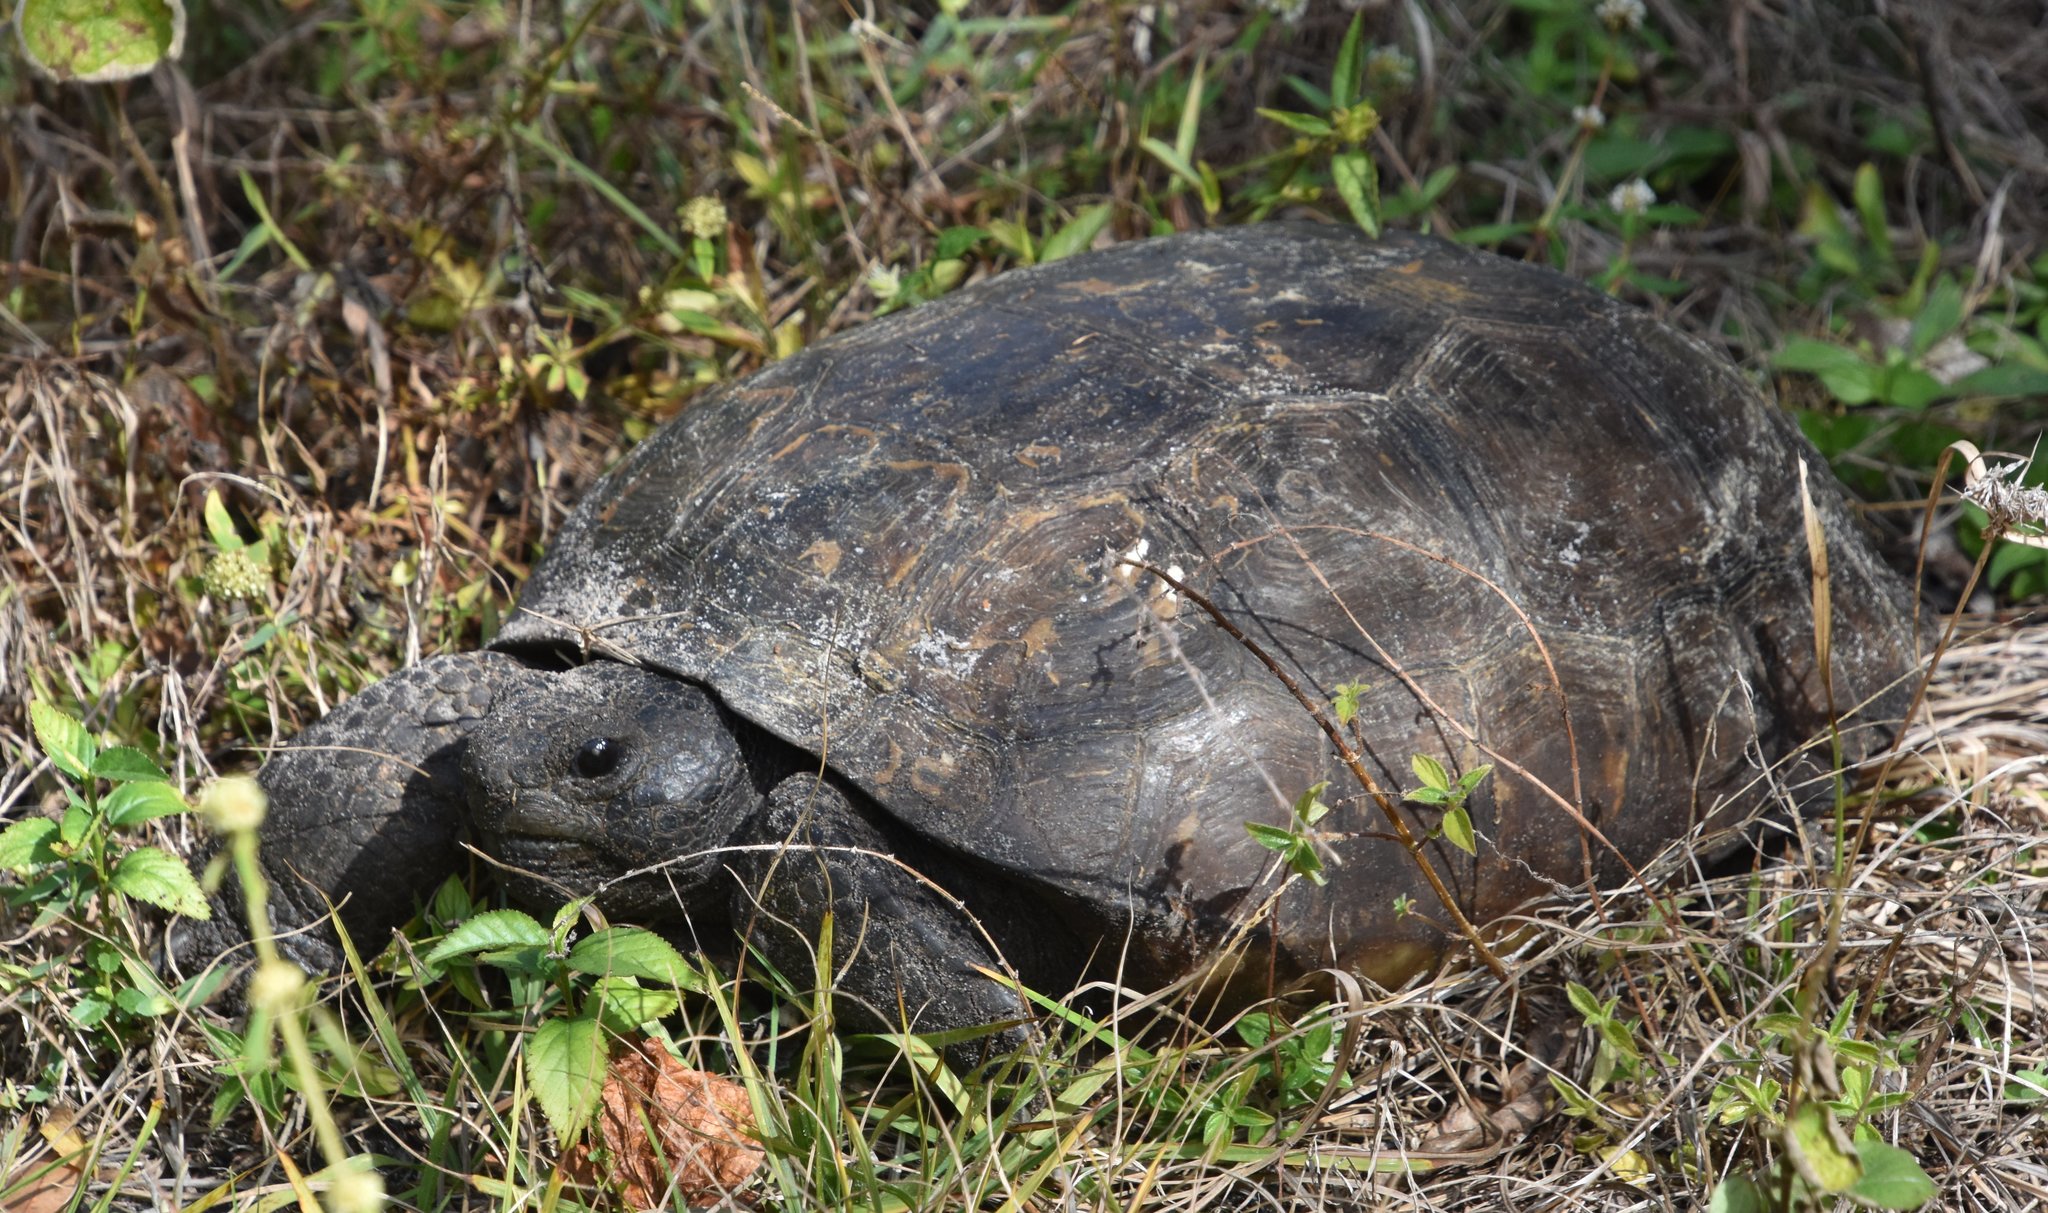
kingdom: Animalia
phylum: Chordata
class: Testudines
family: Testudinidae
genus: Gopherus
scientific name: Gopherus polyphemus
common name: Florida gopher tortoise
